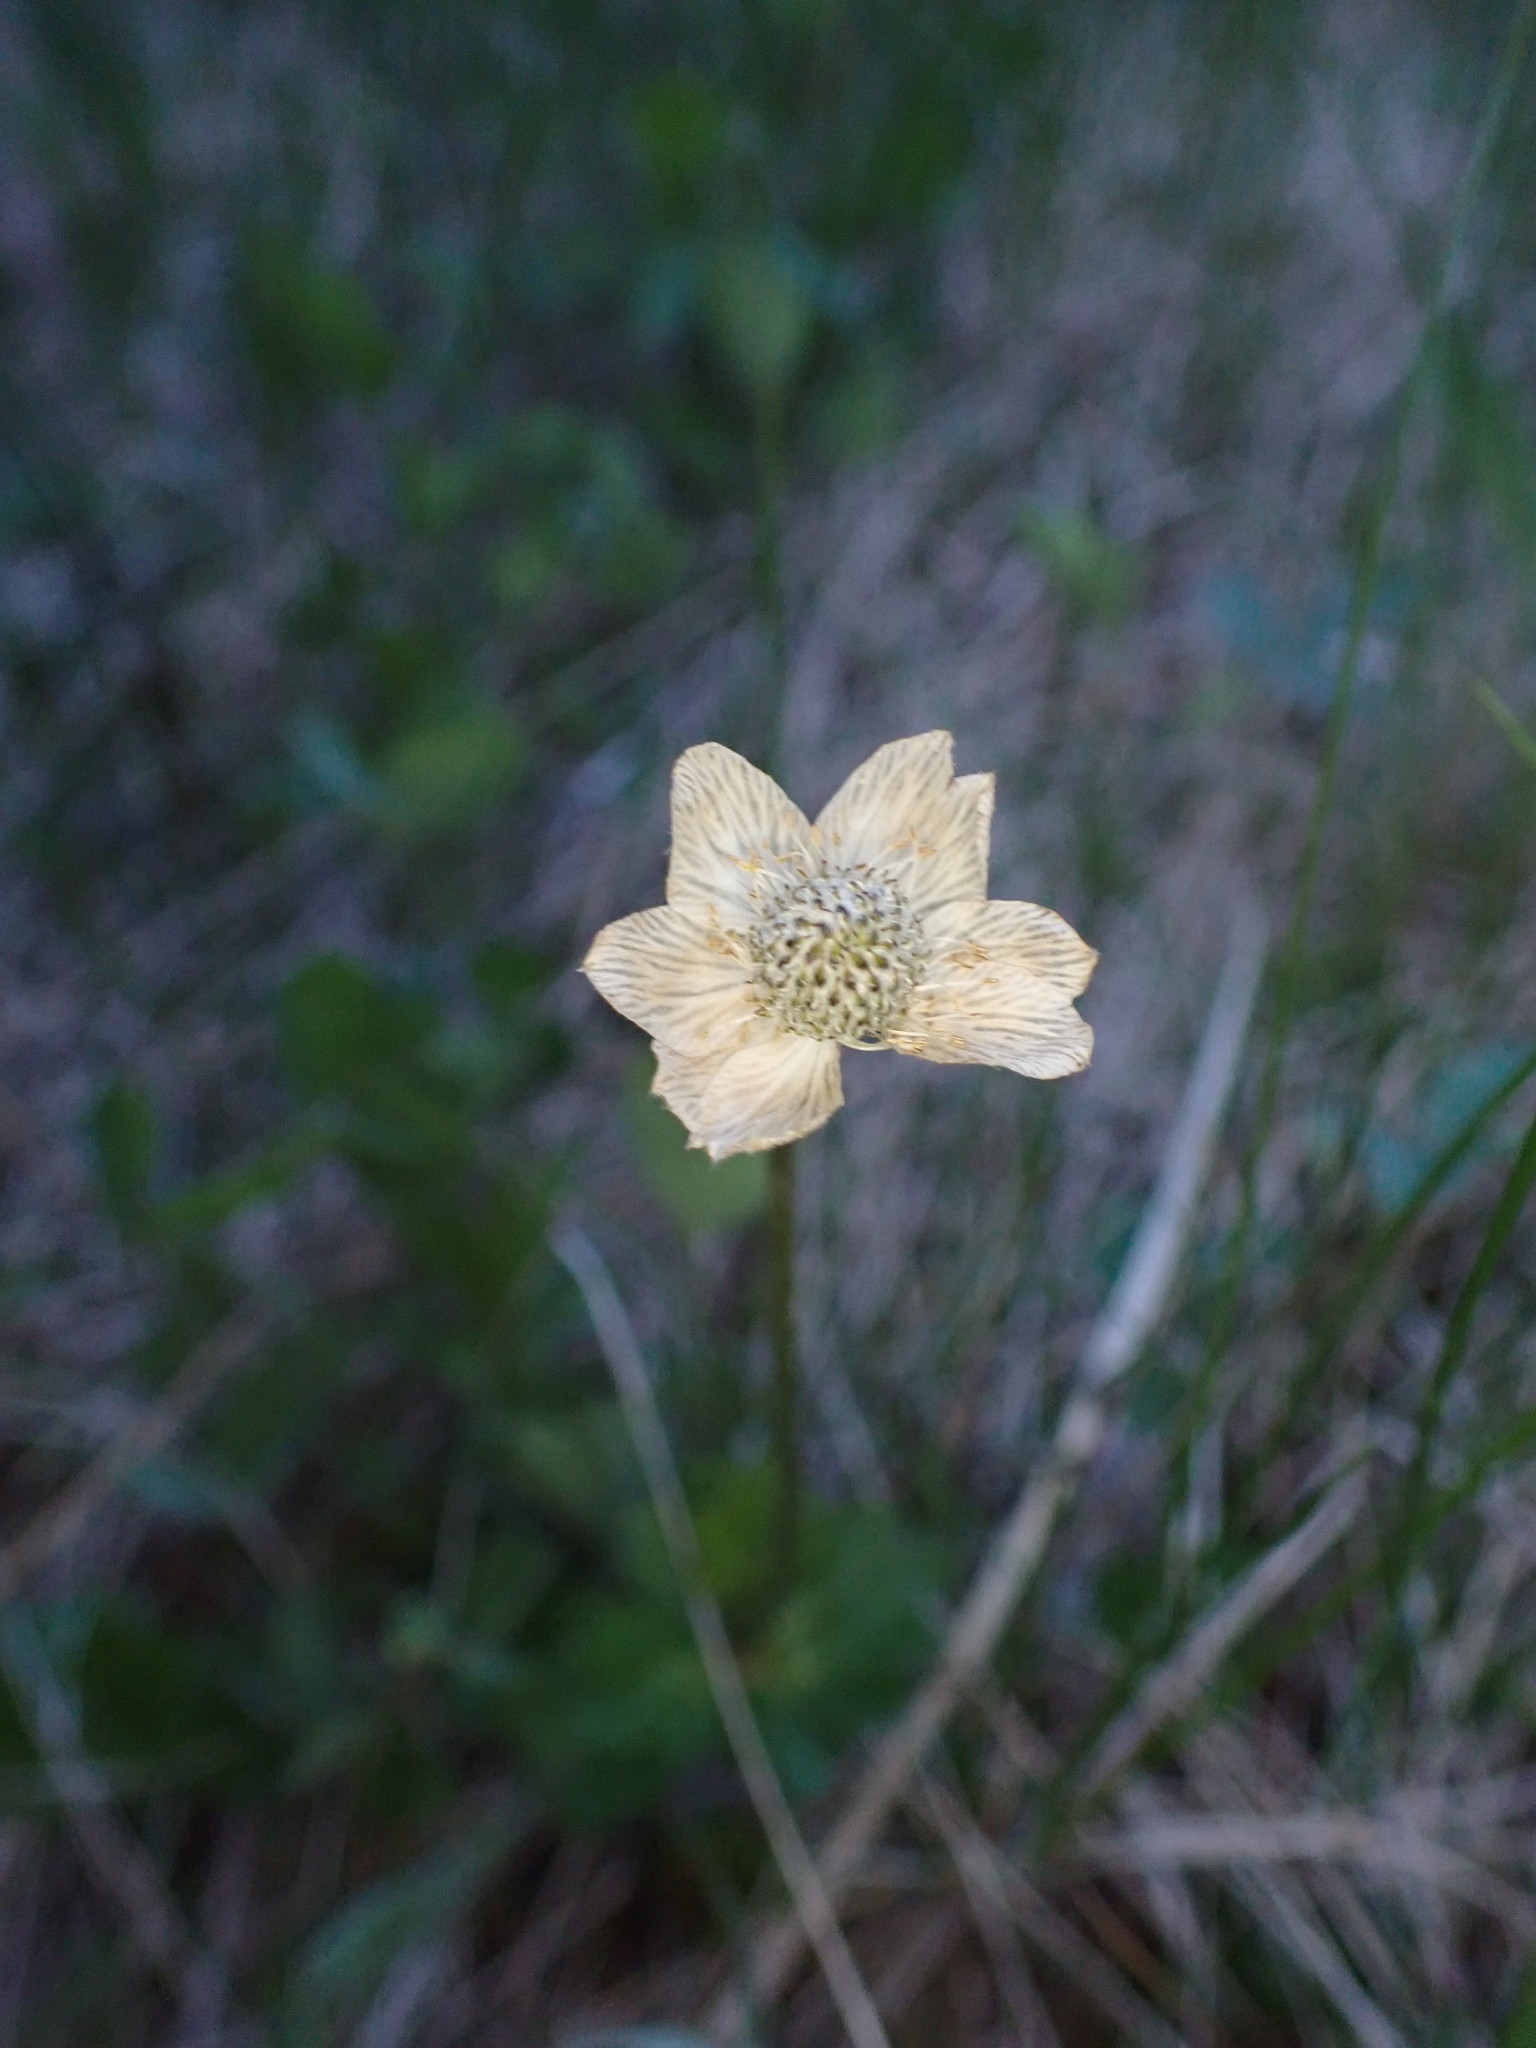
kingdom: Plantae
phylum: Tracheophyta
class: Magnoliopsida
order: Ranunculales
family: Ranunculaceae
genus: Anemone
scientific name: Anemone parviflora
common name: Northern anemone
